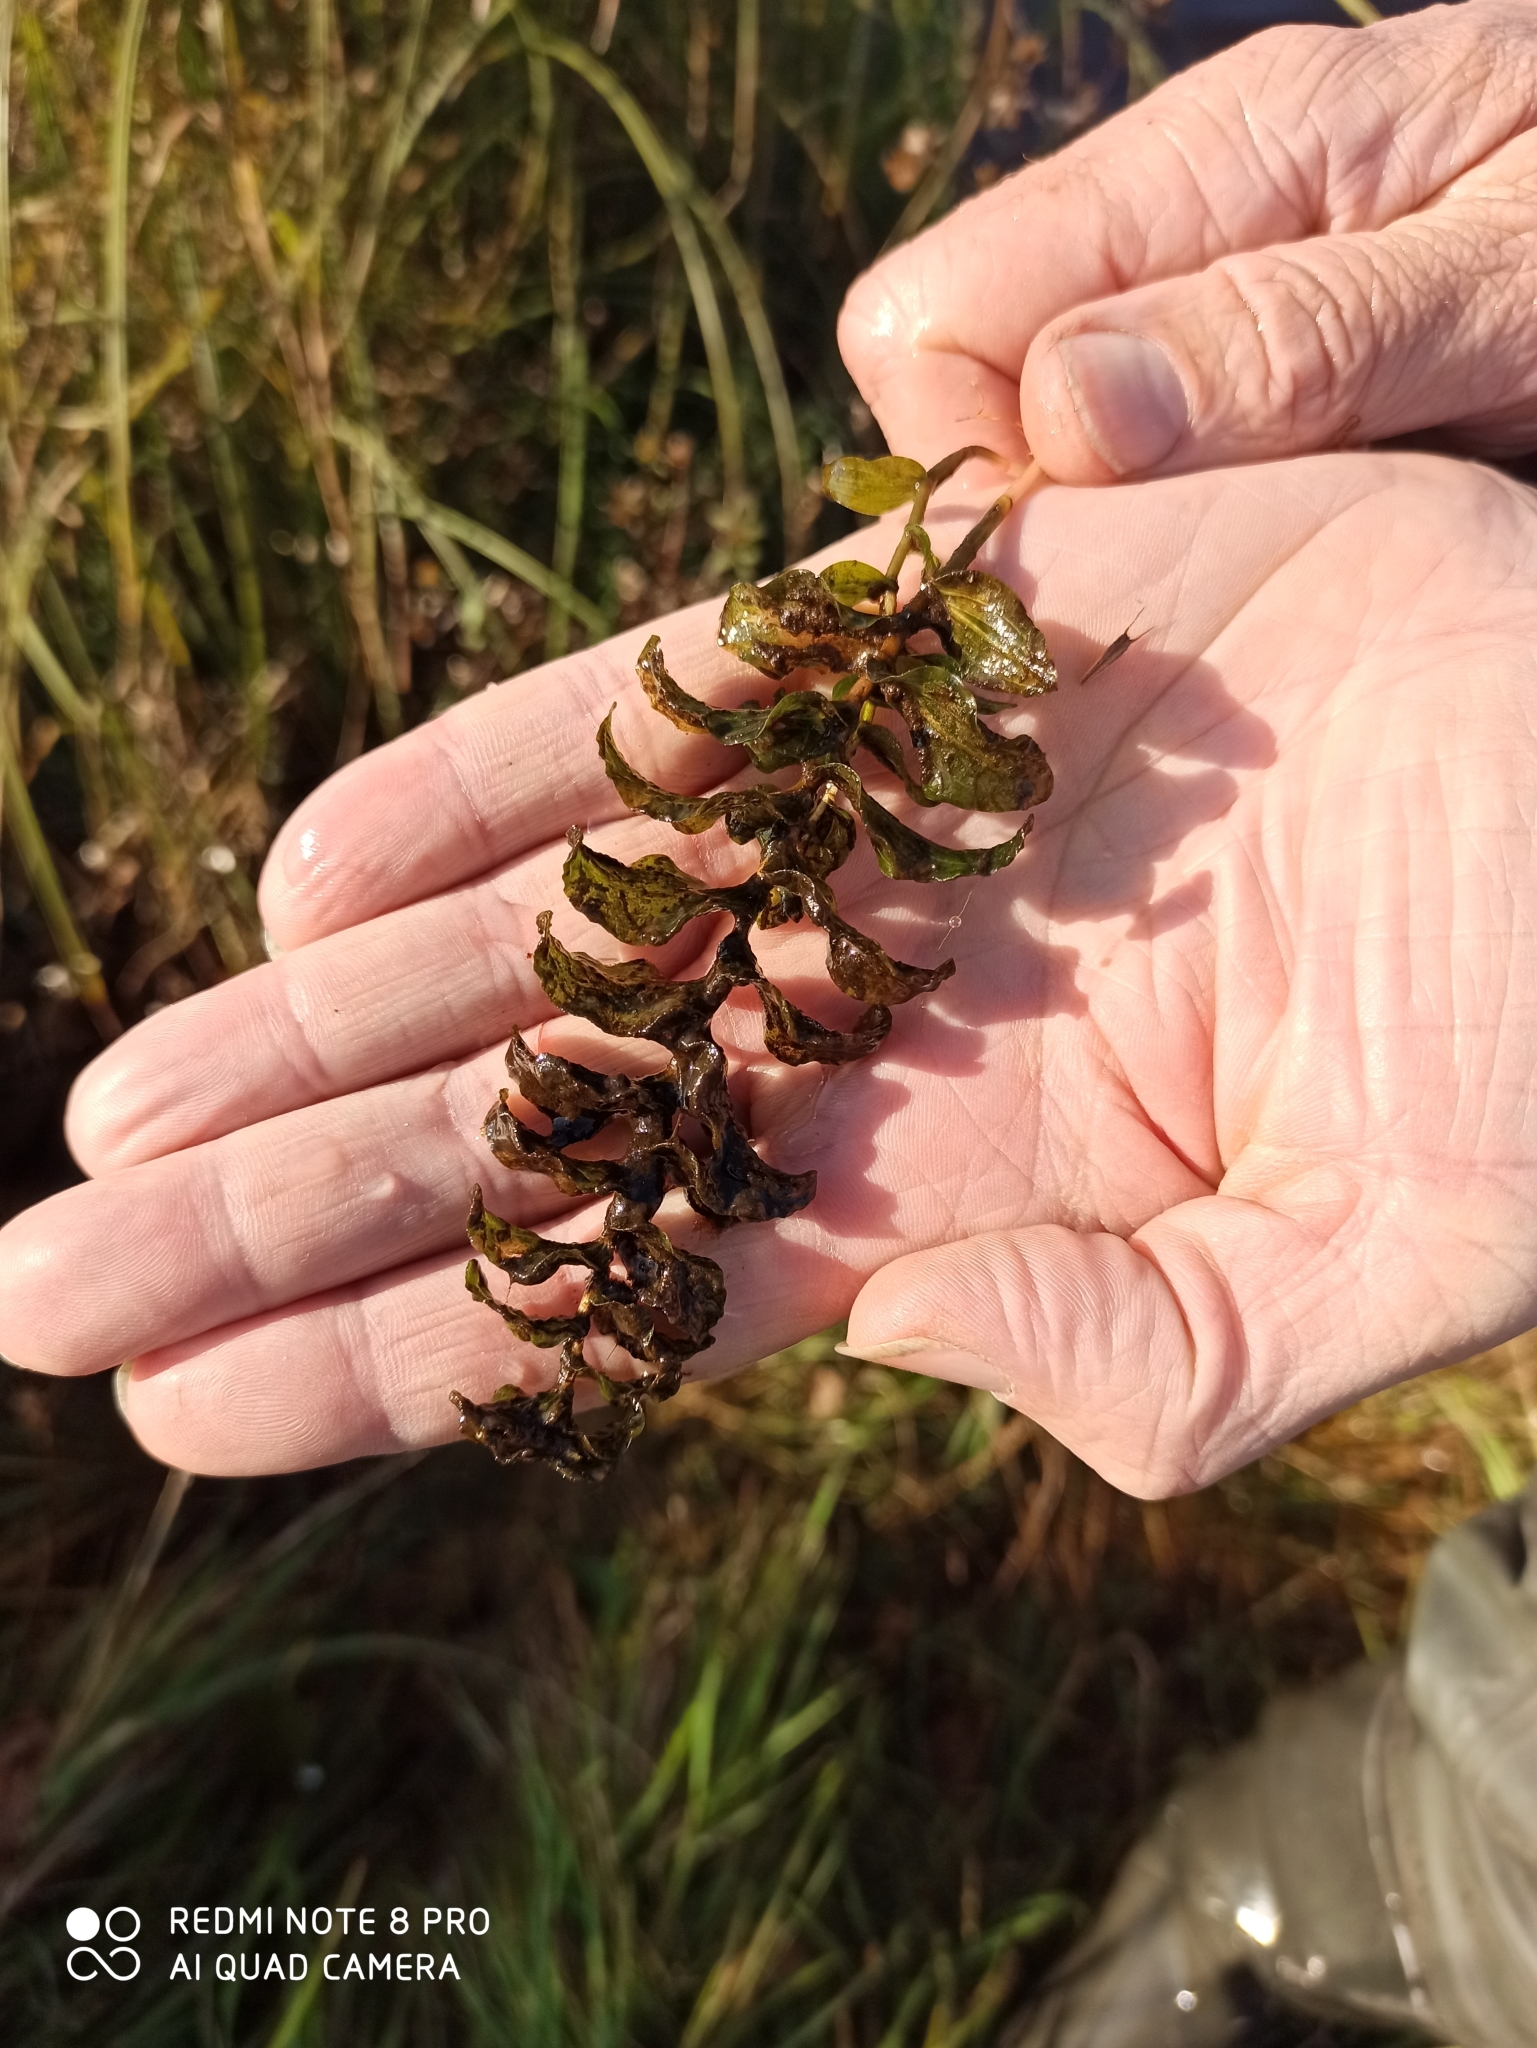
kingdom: Plantae
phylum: Tracheophyta
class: Liliopsida
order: Alismatales
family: Potamogetonaceae
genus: Potamogeton
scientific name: Potamogeton perfoliatus
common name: Perfoliate pondweed
